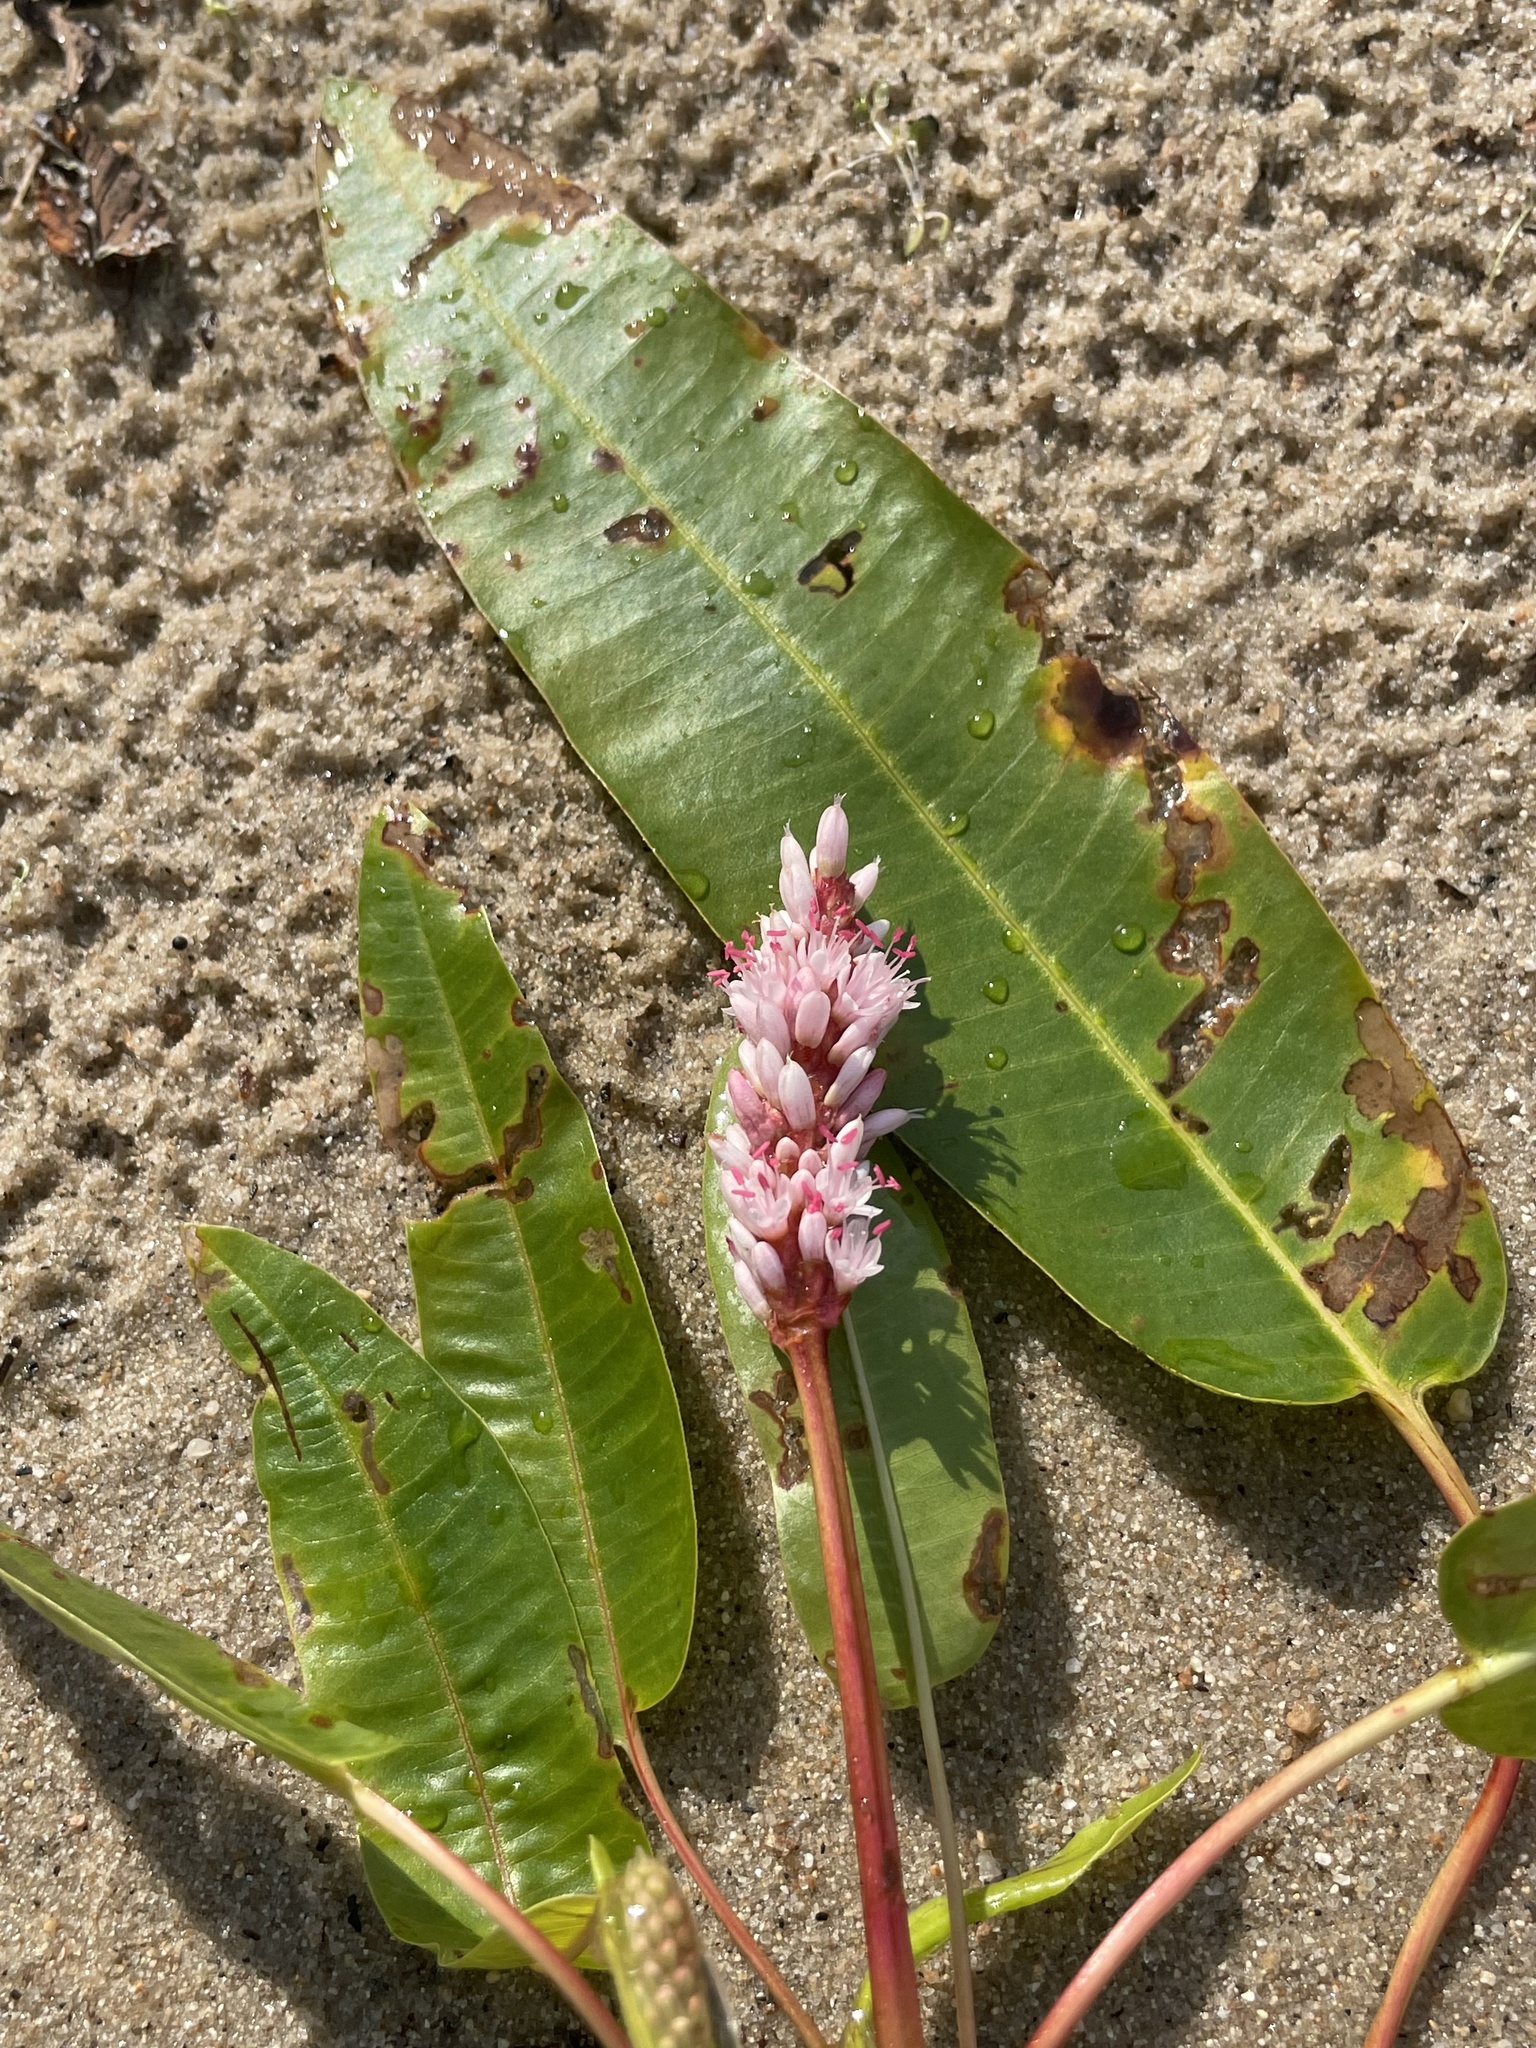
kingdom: Plantae
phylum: Tracheophyta
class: Magnoliopsida
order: Caryophyllales
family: Polygonaceae
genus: Persicaria
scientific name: Persicaria amphibia
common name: Amphibious bistort
